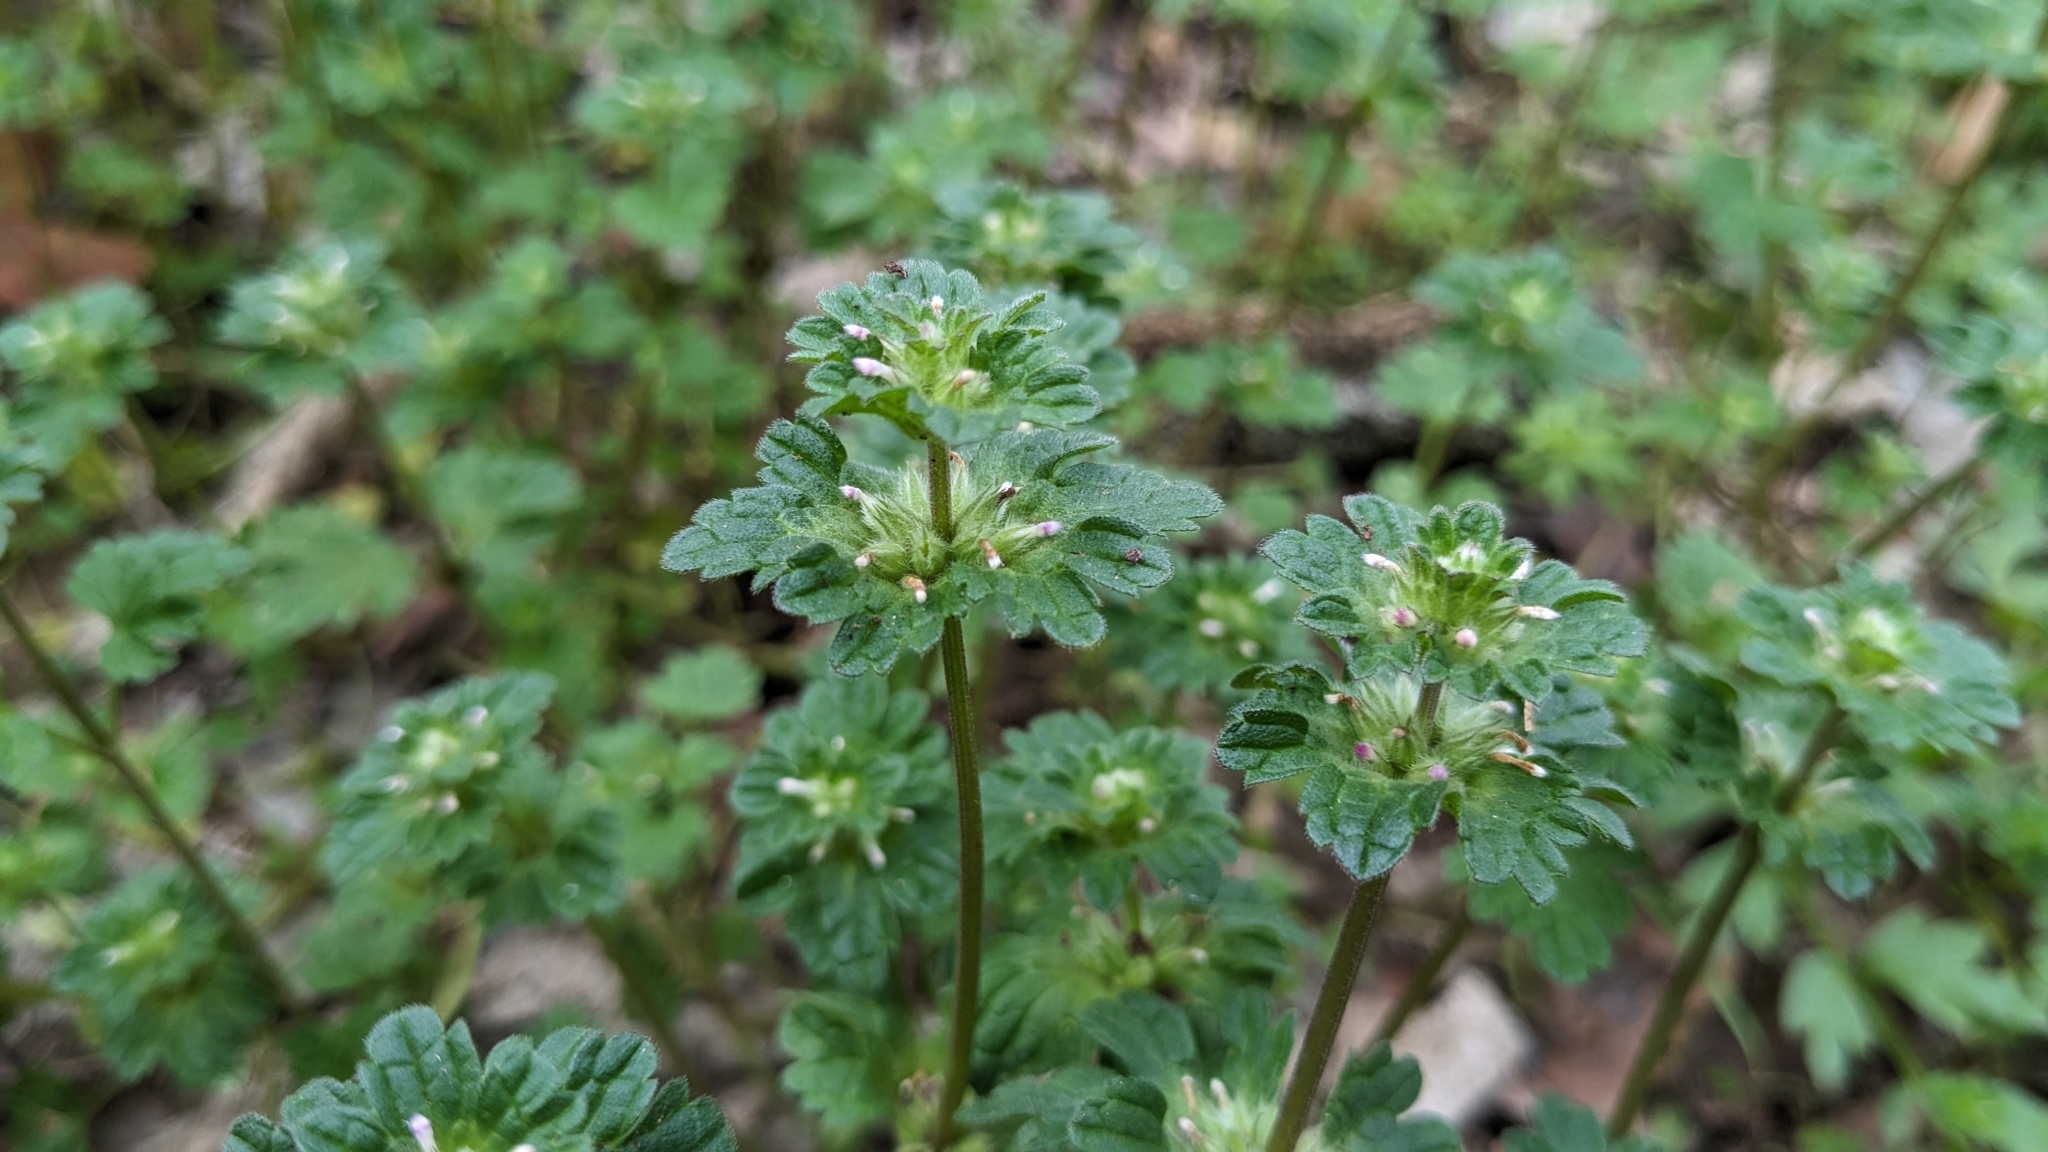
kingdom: Plantae
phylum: Tracheophyta
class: Magnoliopsida
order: Lamiales
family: Lamiaceae
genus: Lamium
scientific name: Lamium amplexicaule
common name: Henbit dead-nettle
